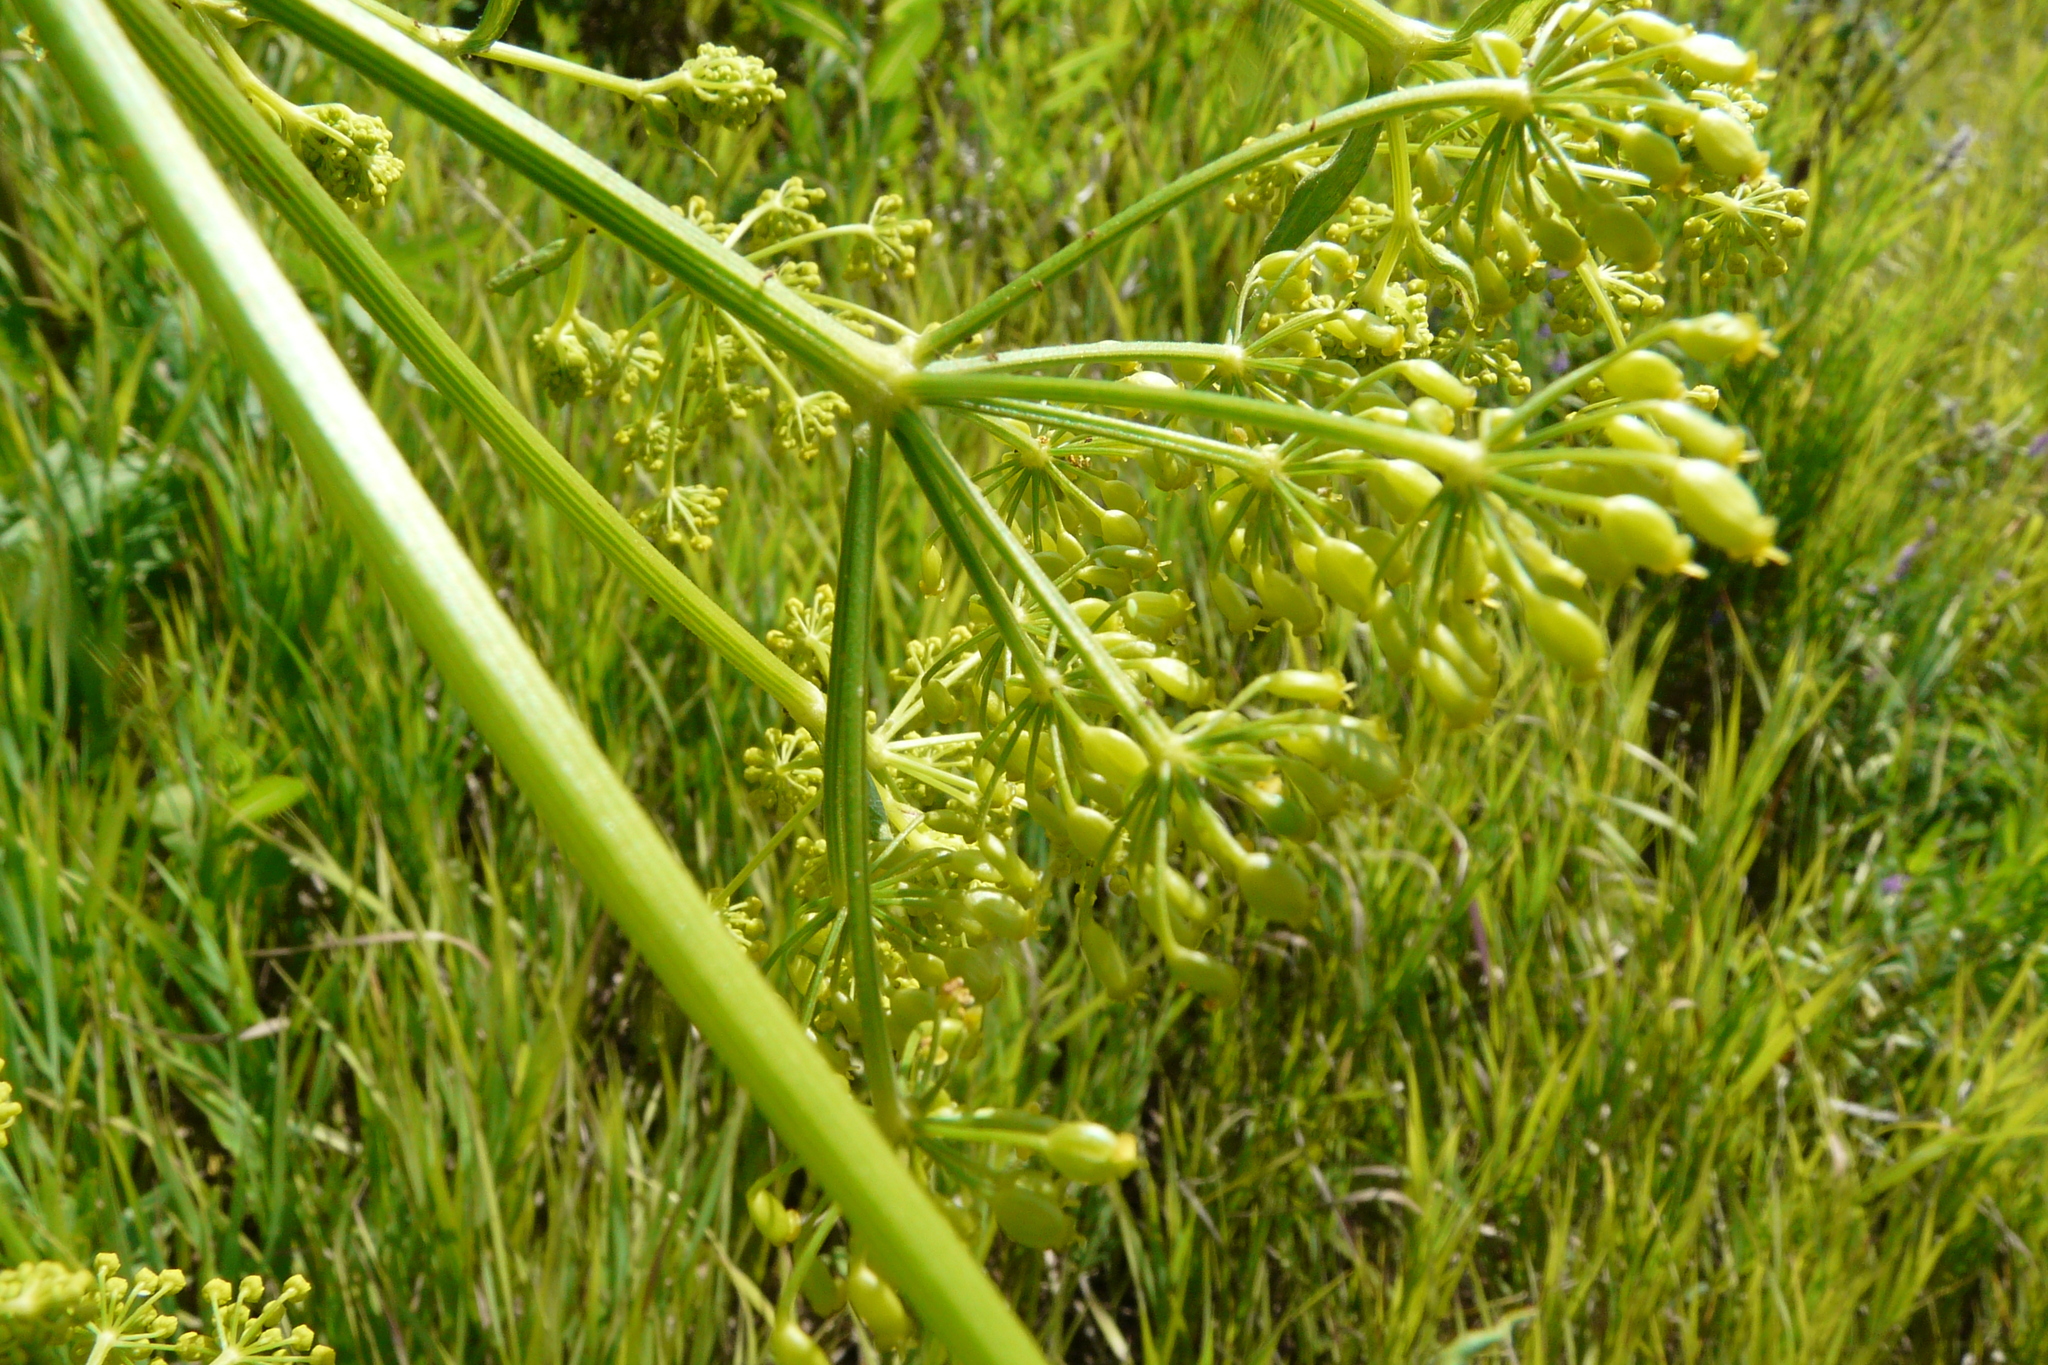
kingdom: Plantae
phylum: Tracheophyta
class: Magnoliopsida
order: Apiales
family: Apiaceae
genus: Pastinaca
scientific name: Pastinaca sativa
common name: Wild parsnip
